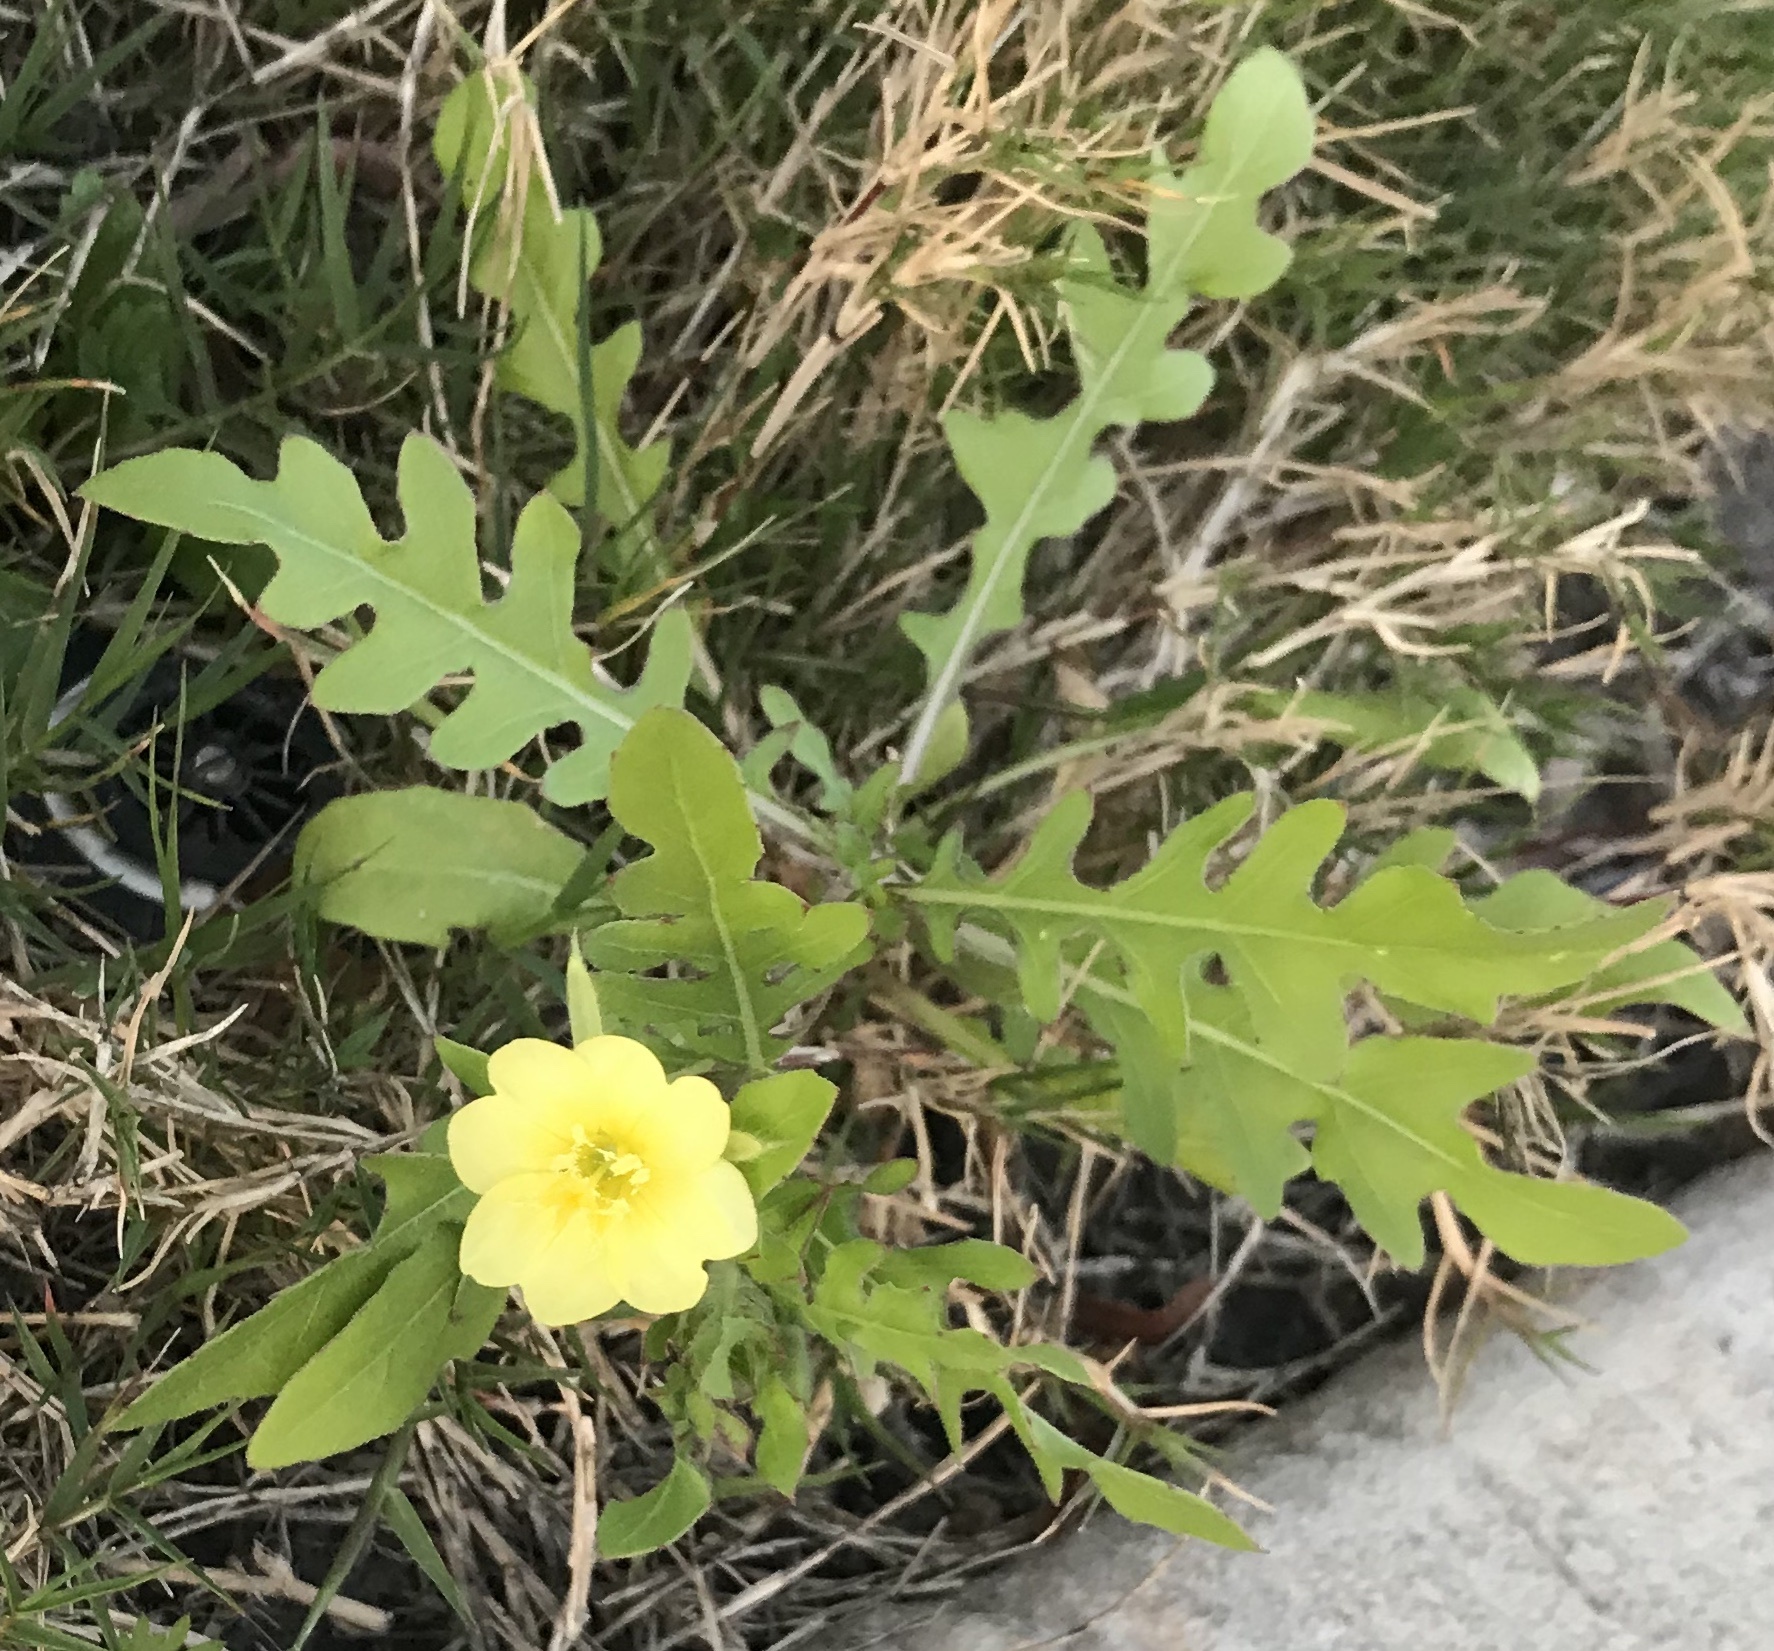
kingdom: Plantae
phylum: Tracheophyta
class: Magnoliopsida
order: Myrtales
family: Onagraceae
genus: Oenothera
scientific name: Oenothera laciniata
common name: Cut-leaved evening-primrose
